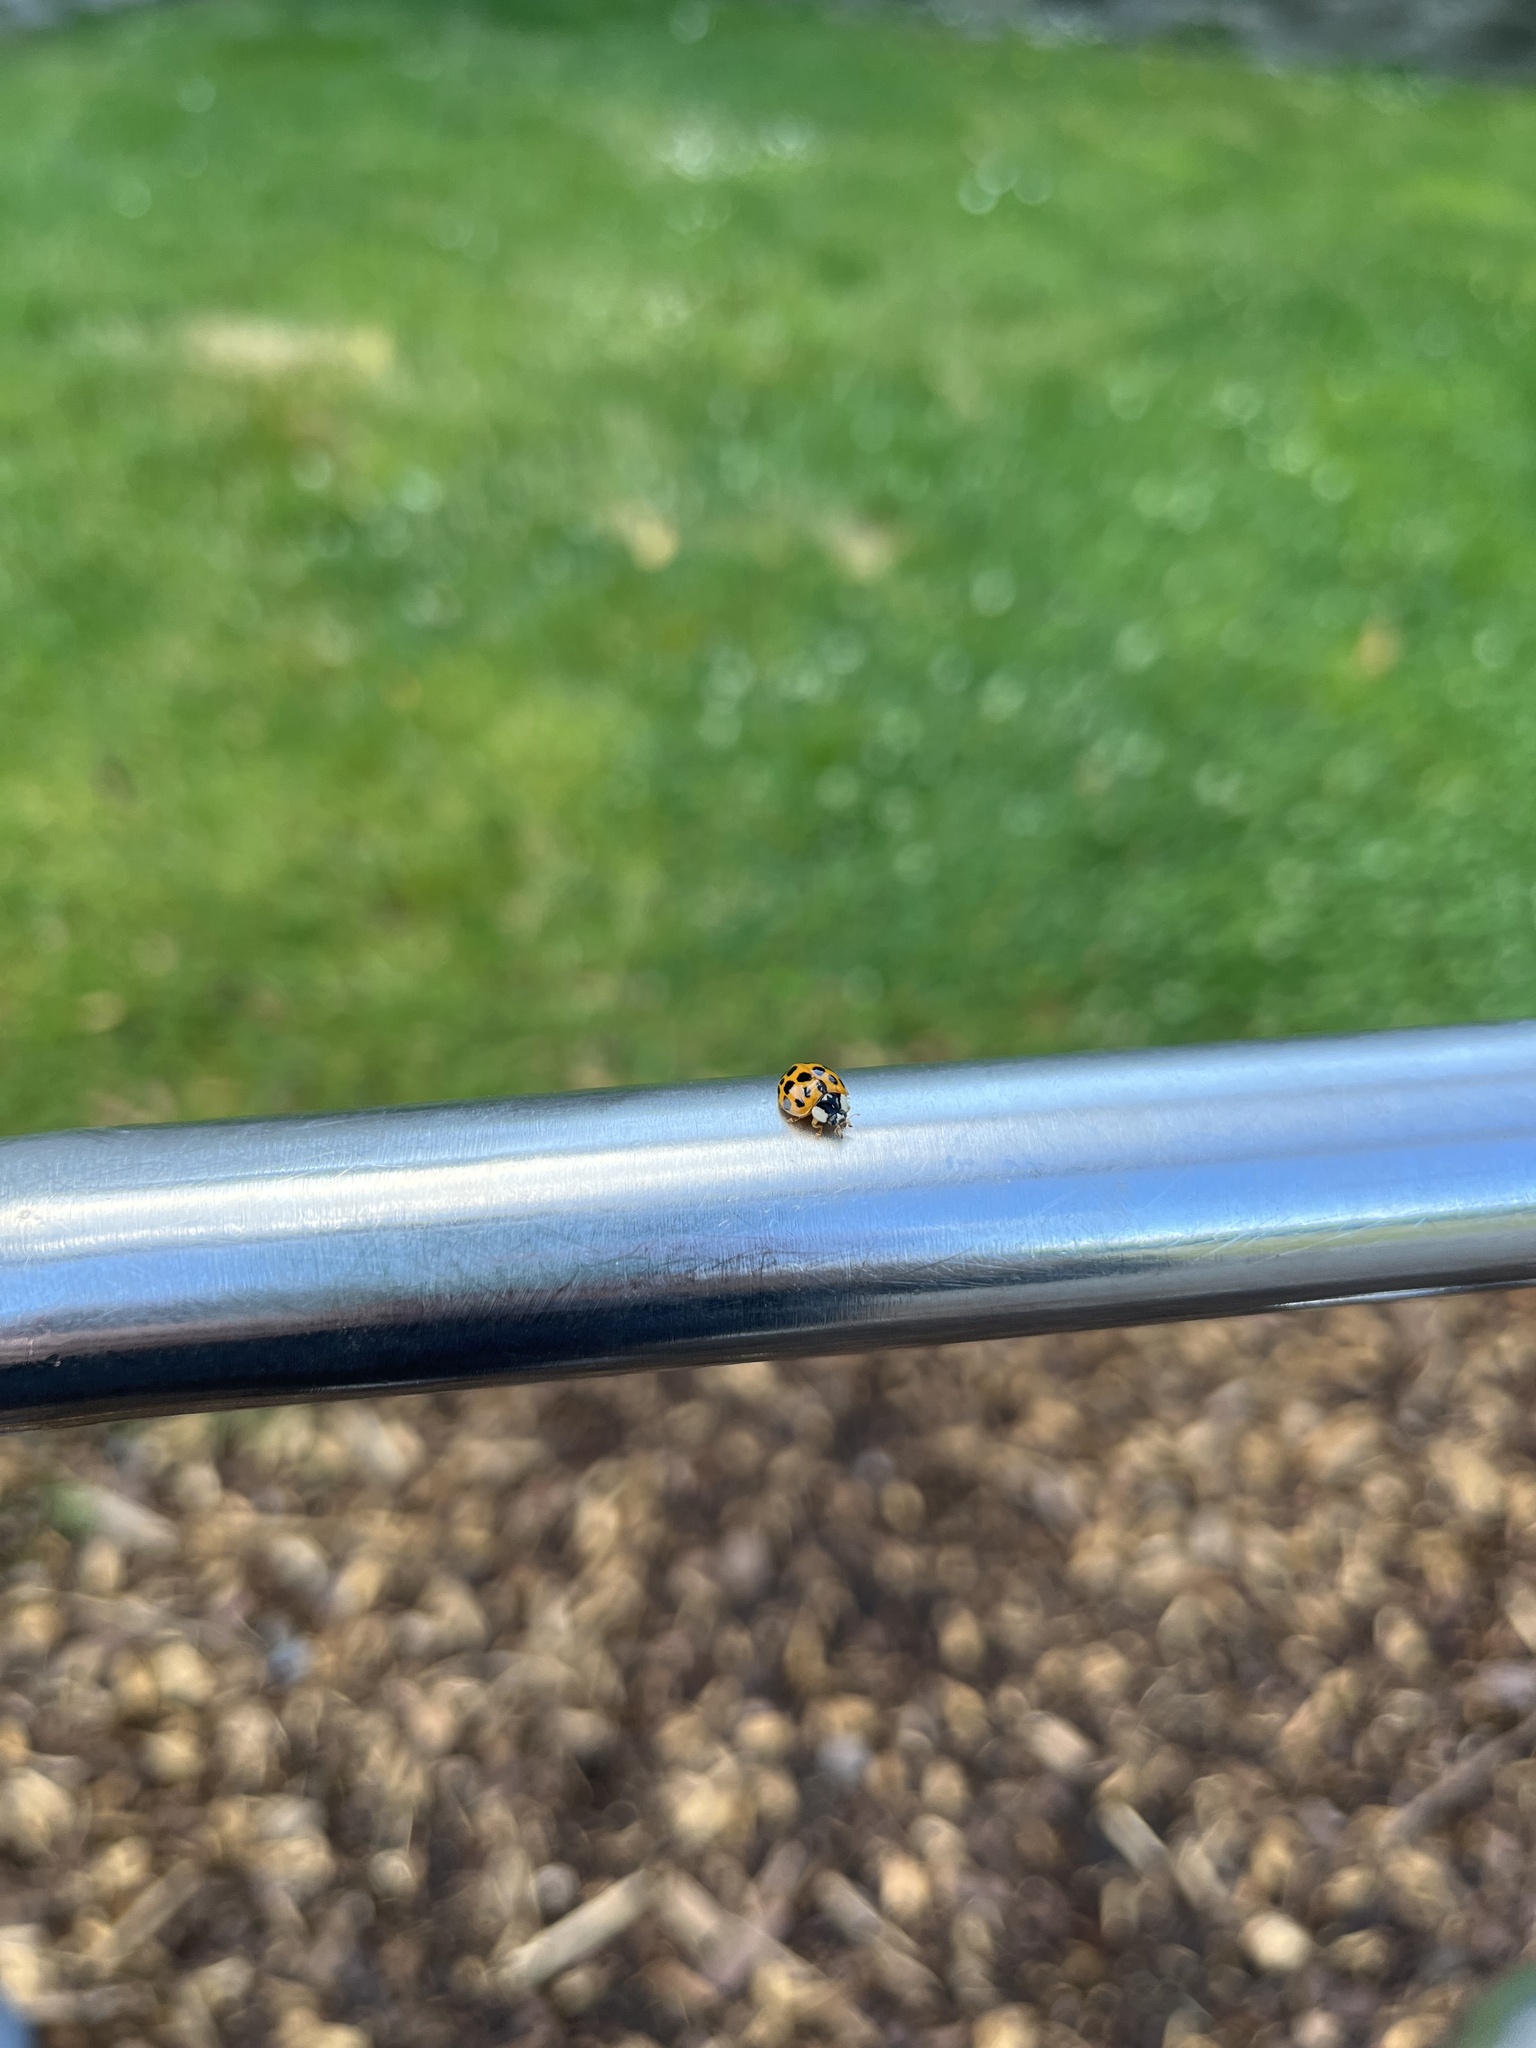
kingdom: Animalia
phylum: Arthropoda
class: Insecta
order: Coleoptera
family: Coccinellidae
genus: Harmonia
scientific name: Harmonia axyridis
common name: Harlequin ladybird
